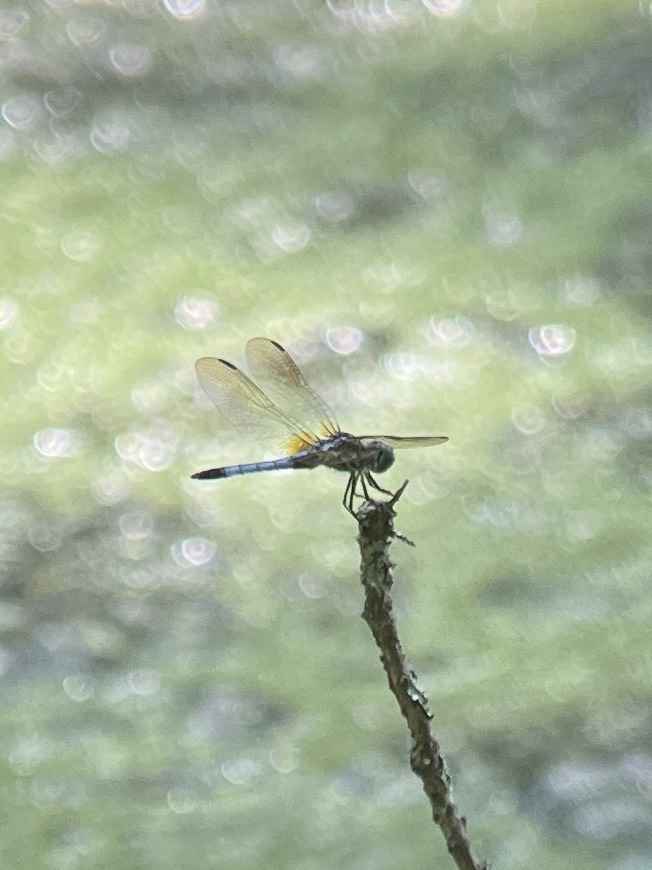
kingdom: Animalia
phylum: Arthropoda
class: Insecta
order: Odonata
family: Libellulidae
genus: Pachydiplax
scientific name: Pachydiplax longipennis
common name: Blue dasher
